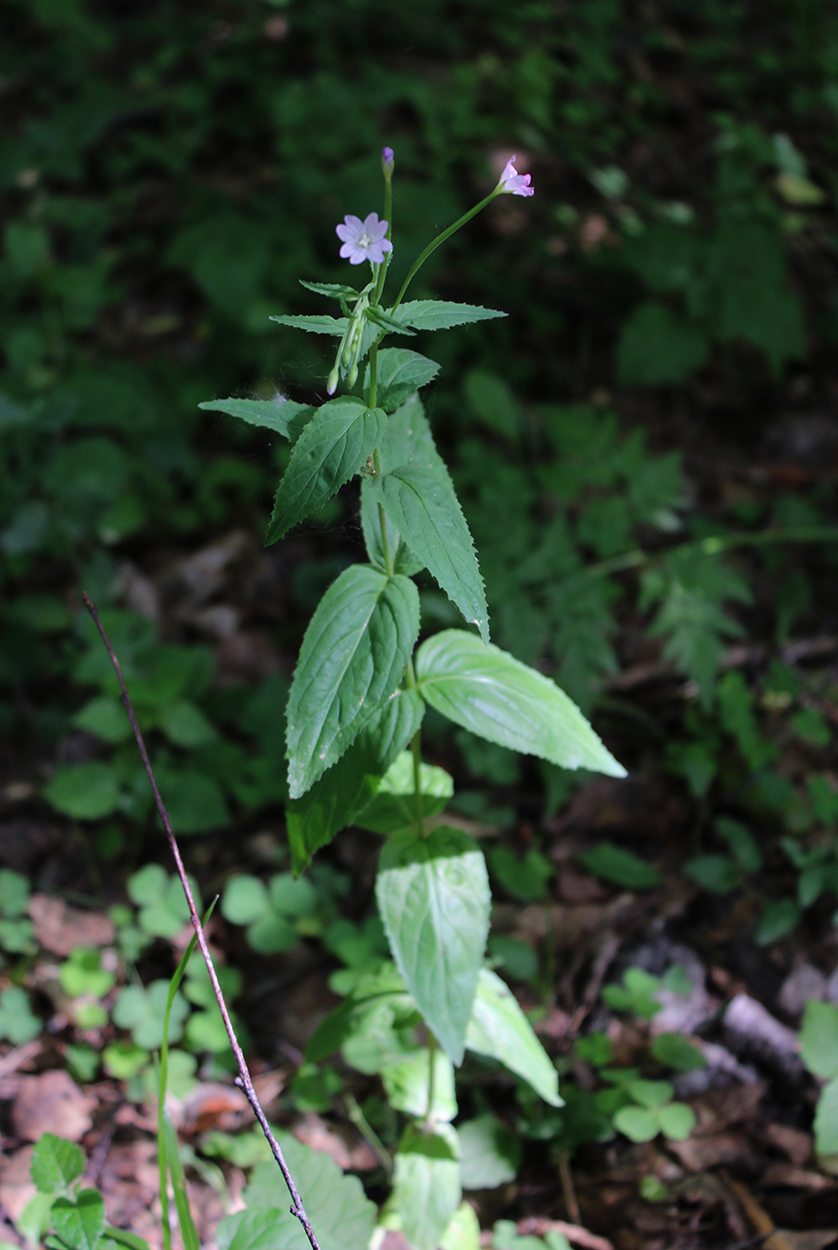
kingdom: Plantae
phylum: Tracheophyta
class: Magnoliopsida
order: Myrtales
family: Onagraceae
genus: Epilobium
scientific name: Epilobium montanum
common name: Broad-leaved willowherb
